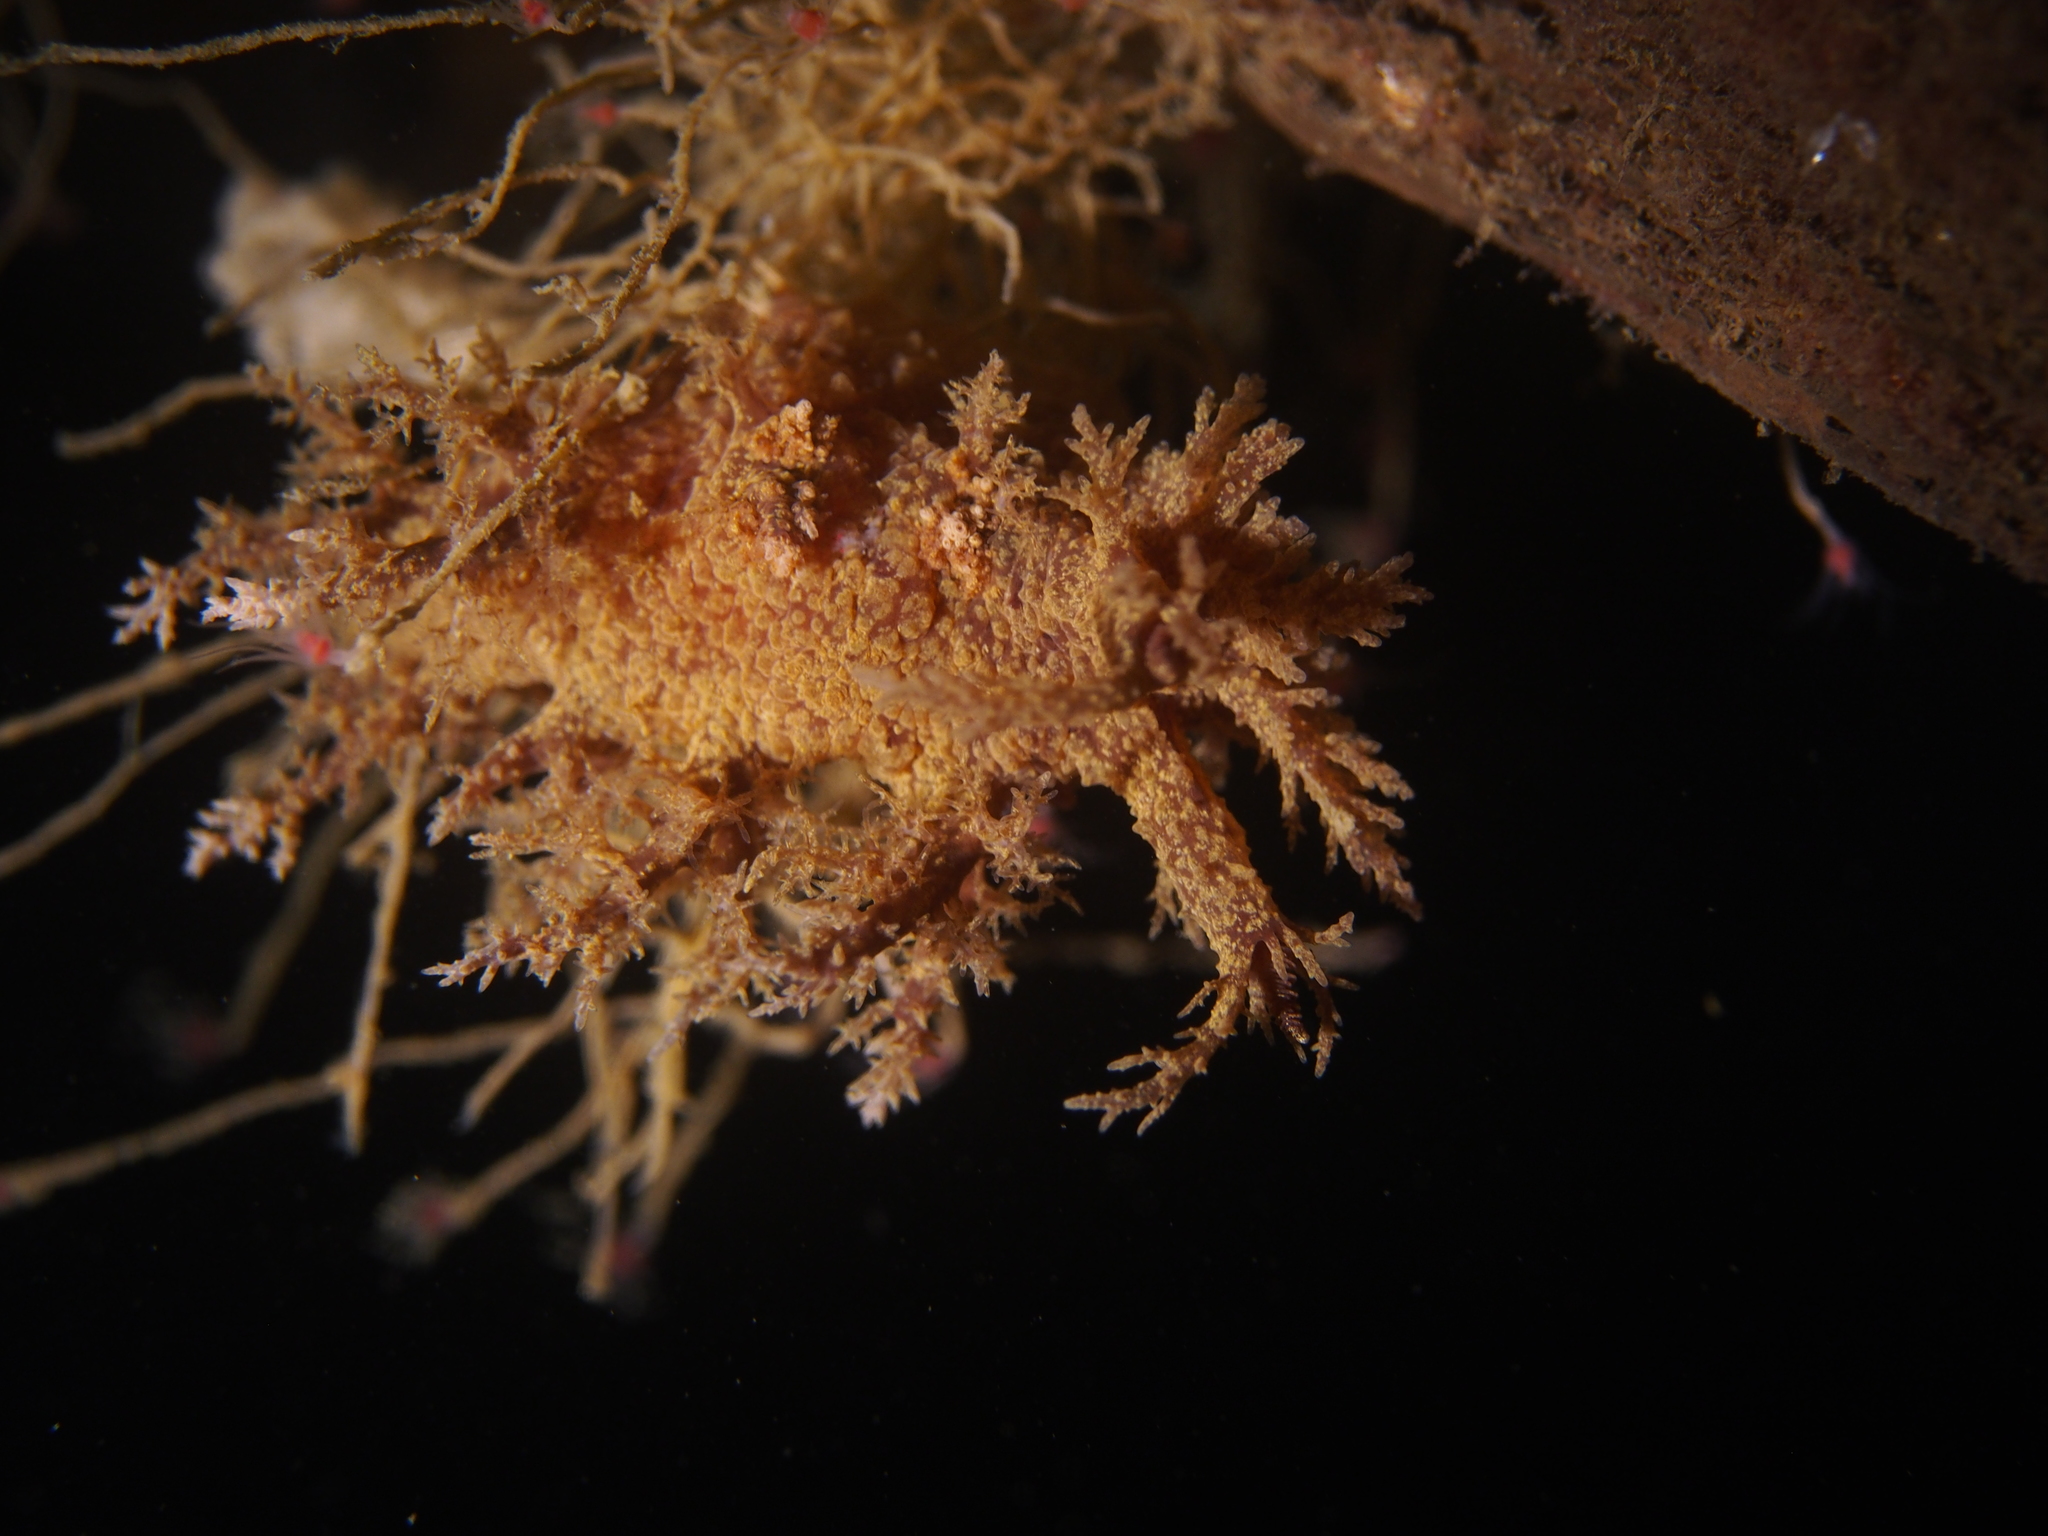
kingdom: Animalia
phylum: Mollusca
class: Gastropoda
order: Nudibranchia
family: Dendronotidae
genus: Dendronotus
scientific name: Dendronotus europaeus
